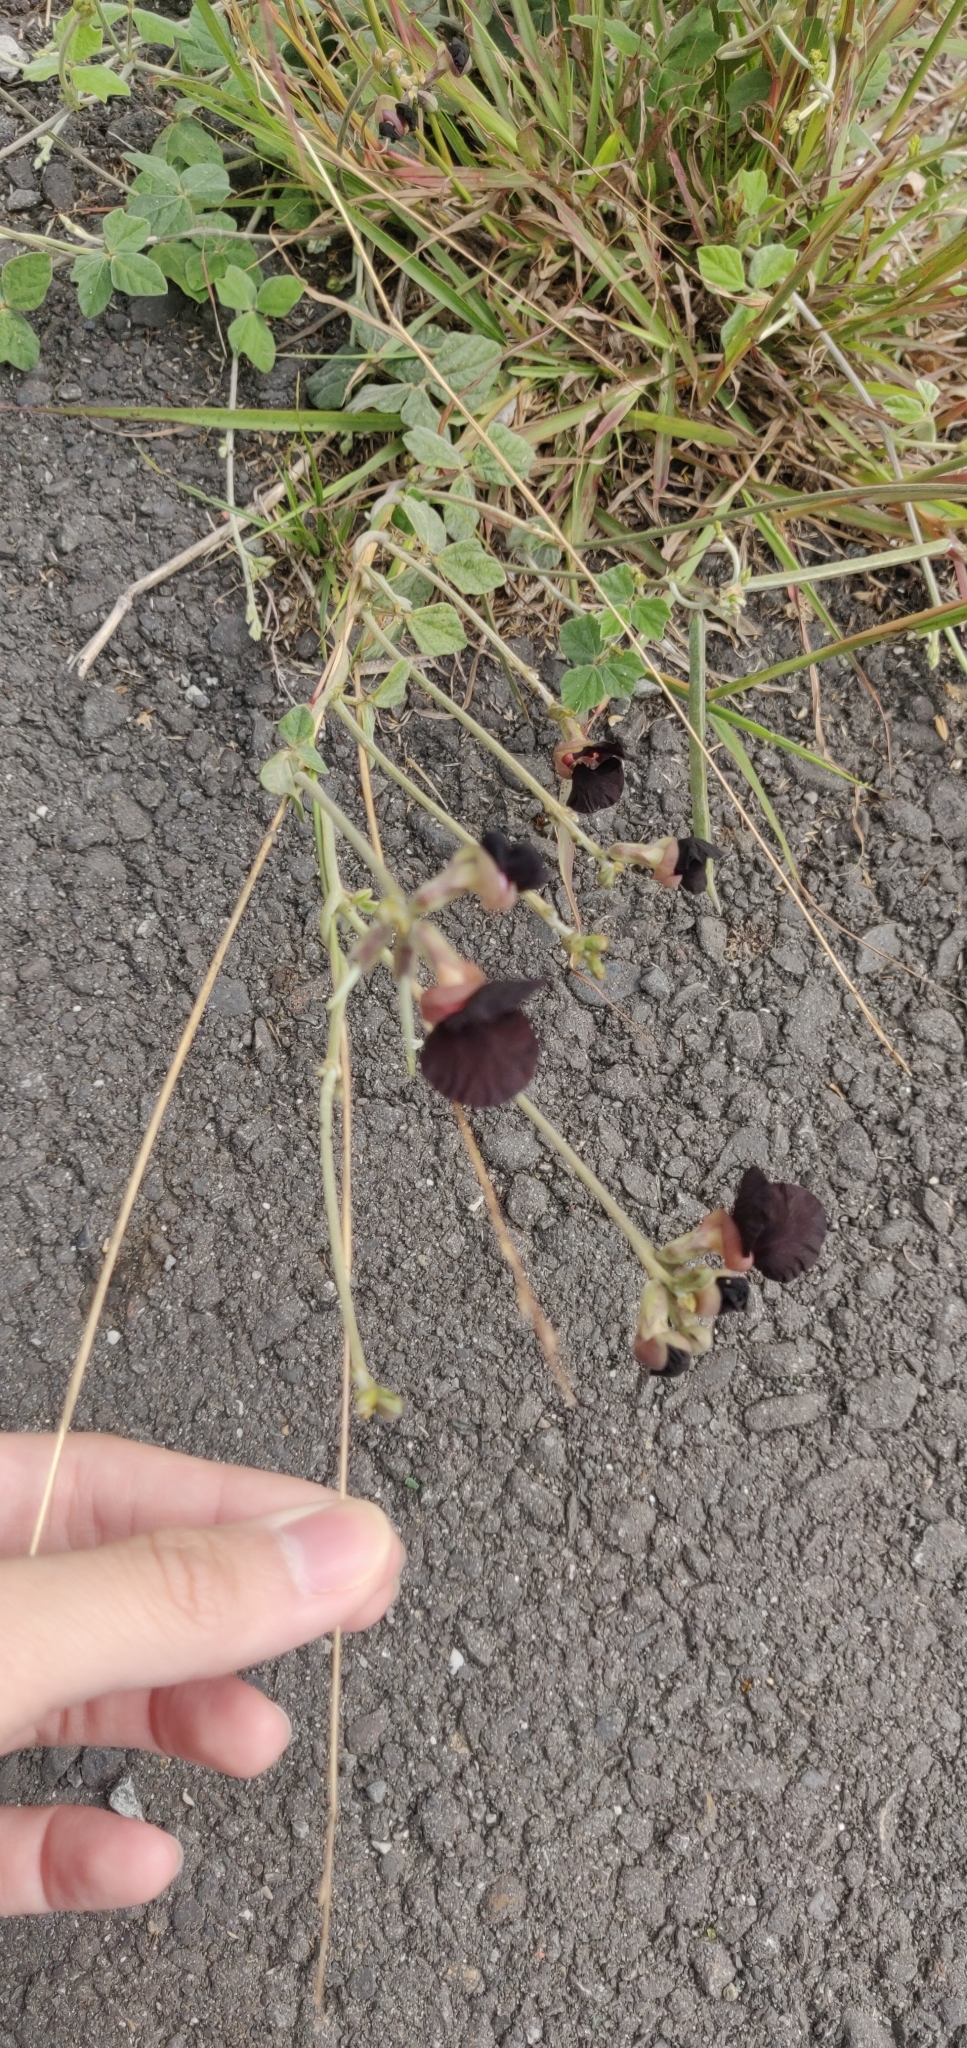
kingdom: Plantae
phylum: Tracheophyta
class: Magnoliopsida
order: Fabales
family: Fabaceae
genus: Macroptilium
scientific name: Macroptilium atropurpureum
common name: Purple bushbean
